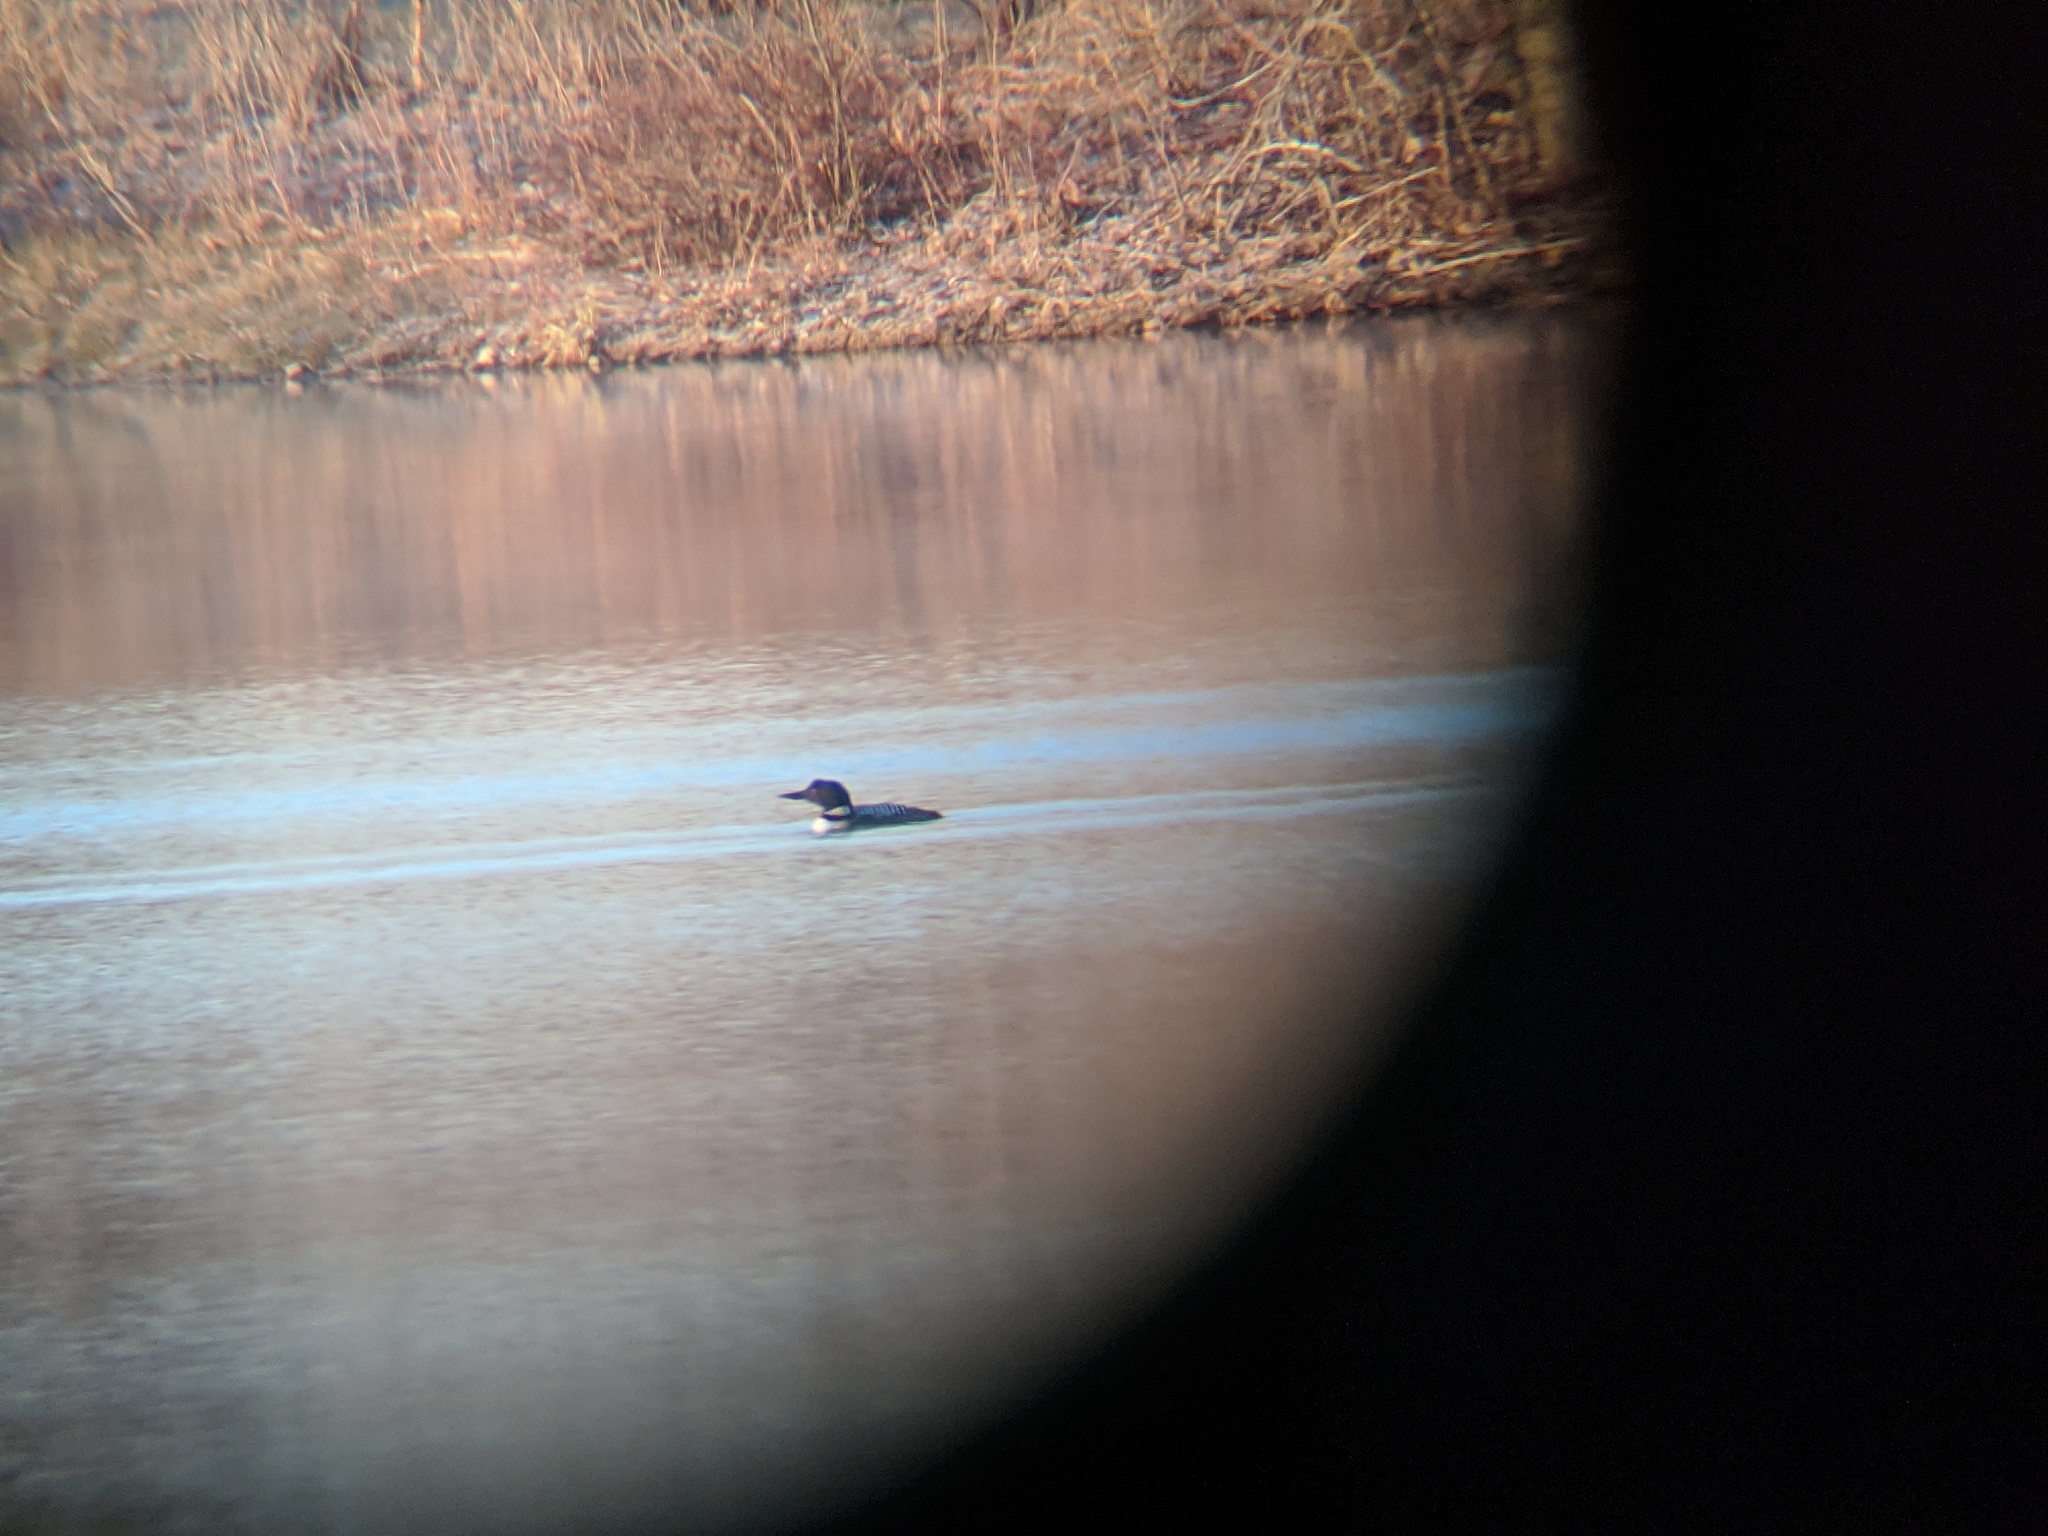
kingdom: Animalia
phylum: Chordata
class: Aves
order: Gaviiformes
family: Gaviidae
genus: Gavia
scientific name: Gavia immer
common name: Common loon
